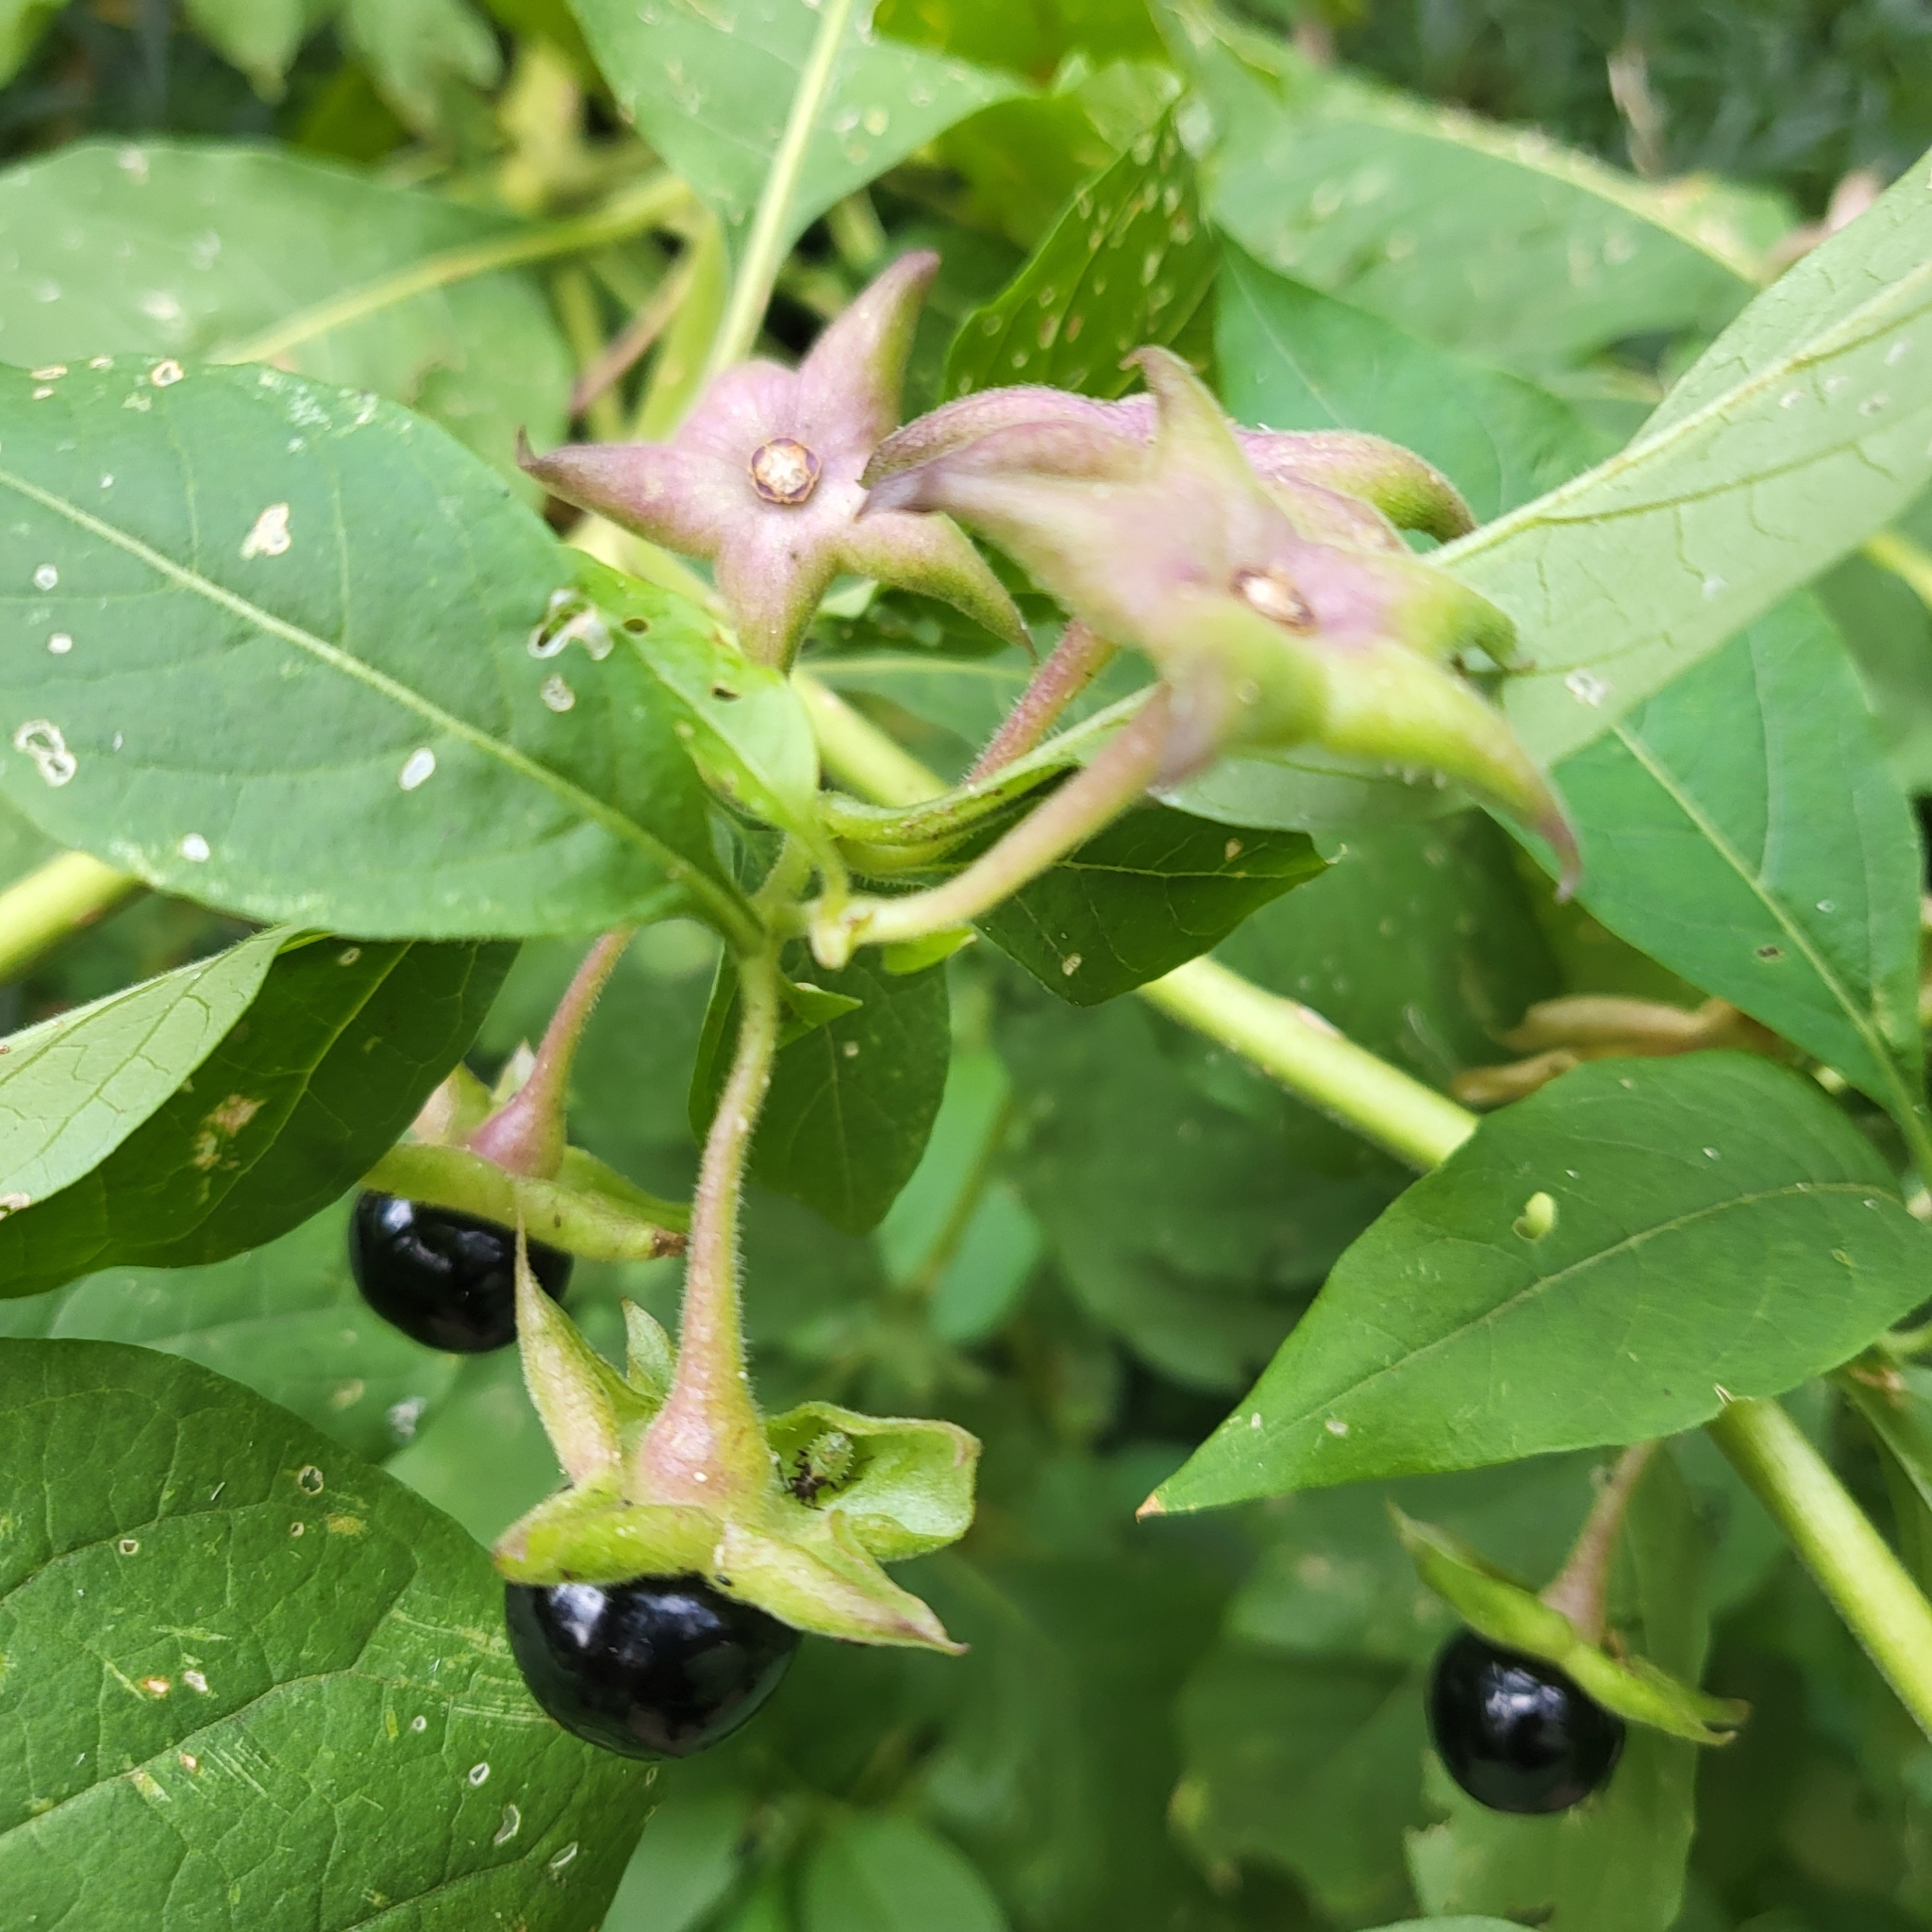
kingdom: Plantae
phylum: Tracheophyta
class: Magnoliopsida
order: Solanales
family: Solanaceae
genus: Atropa
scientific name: Atropa belladonna
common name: Deadly nightshade
